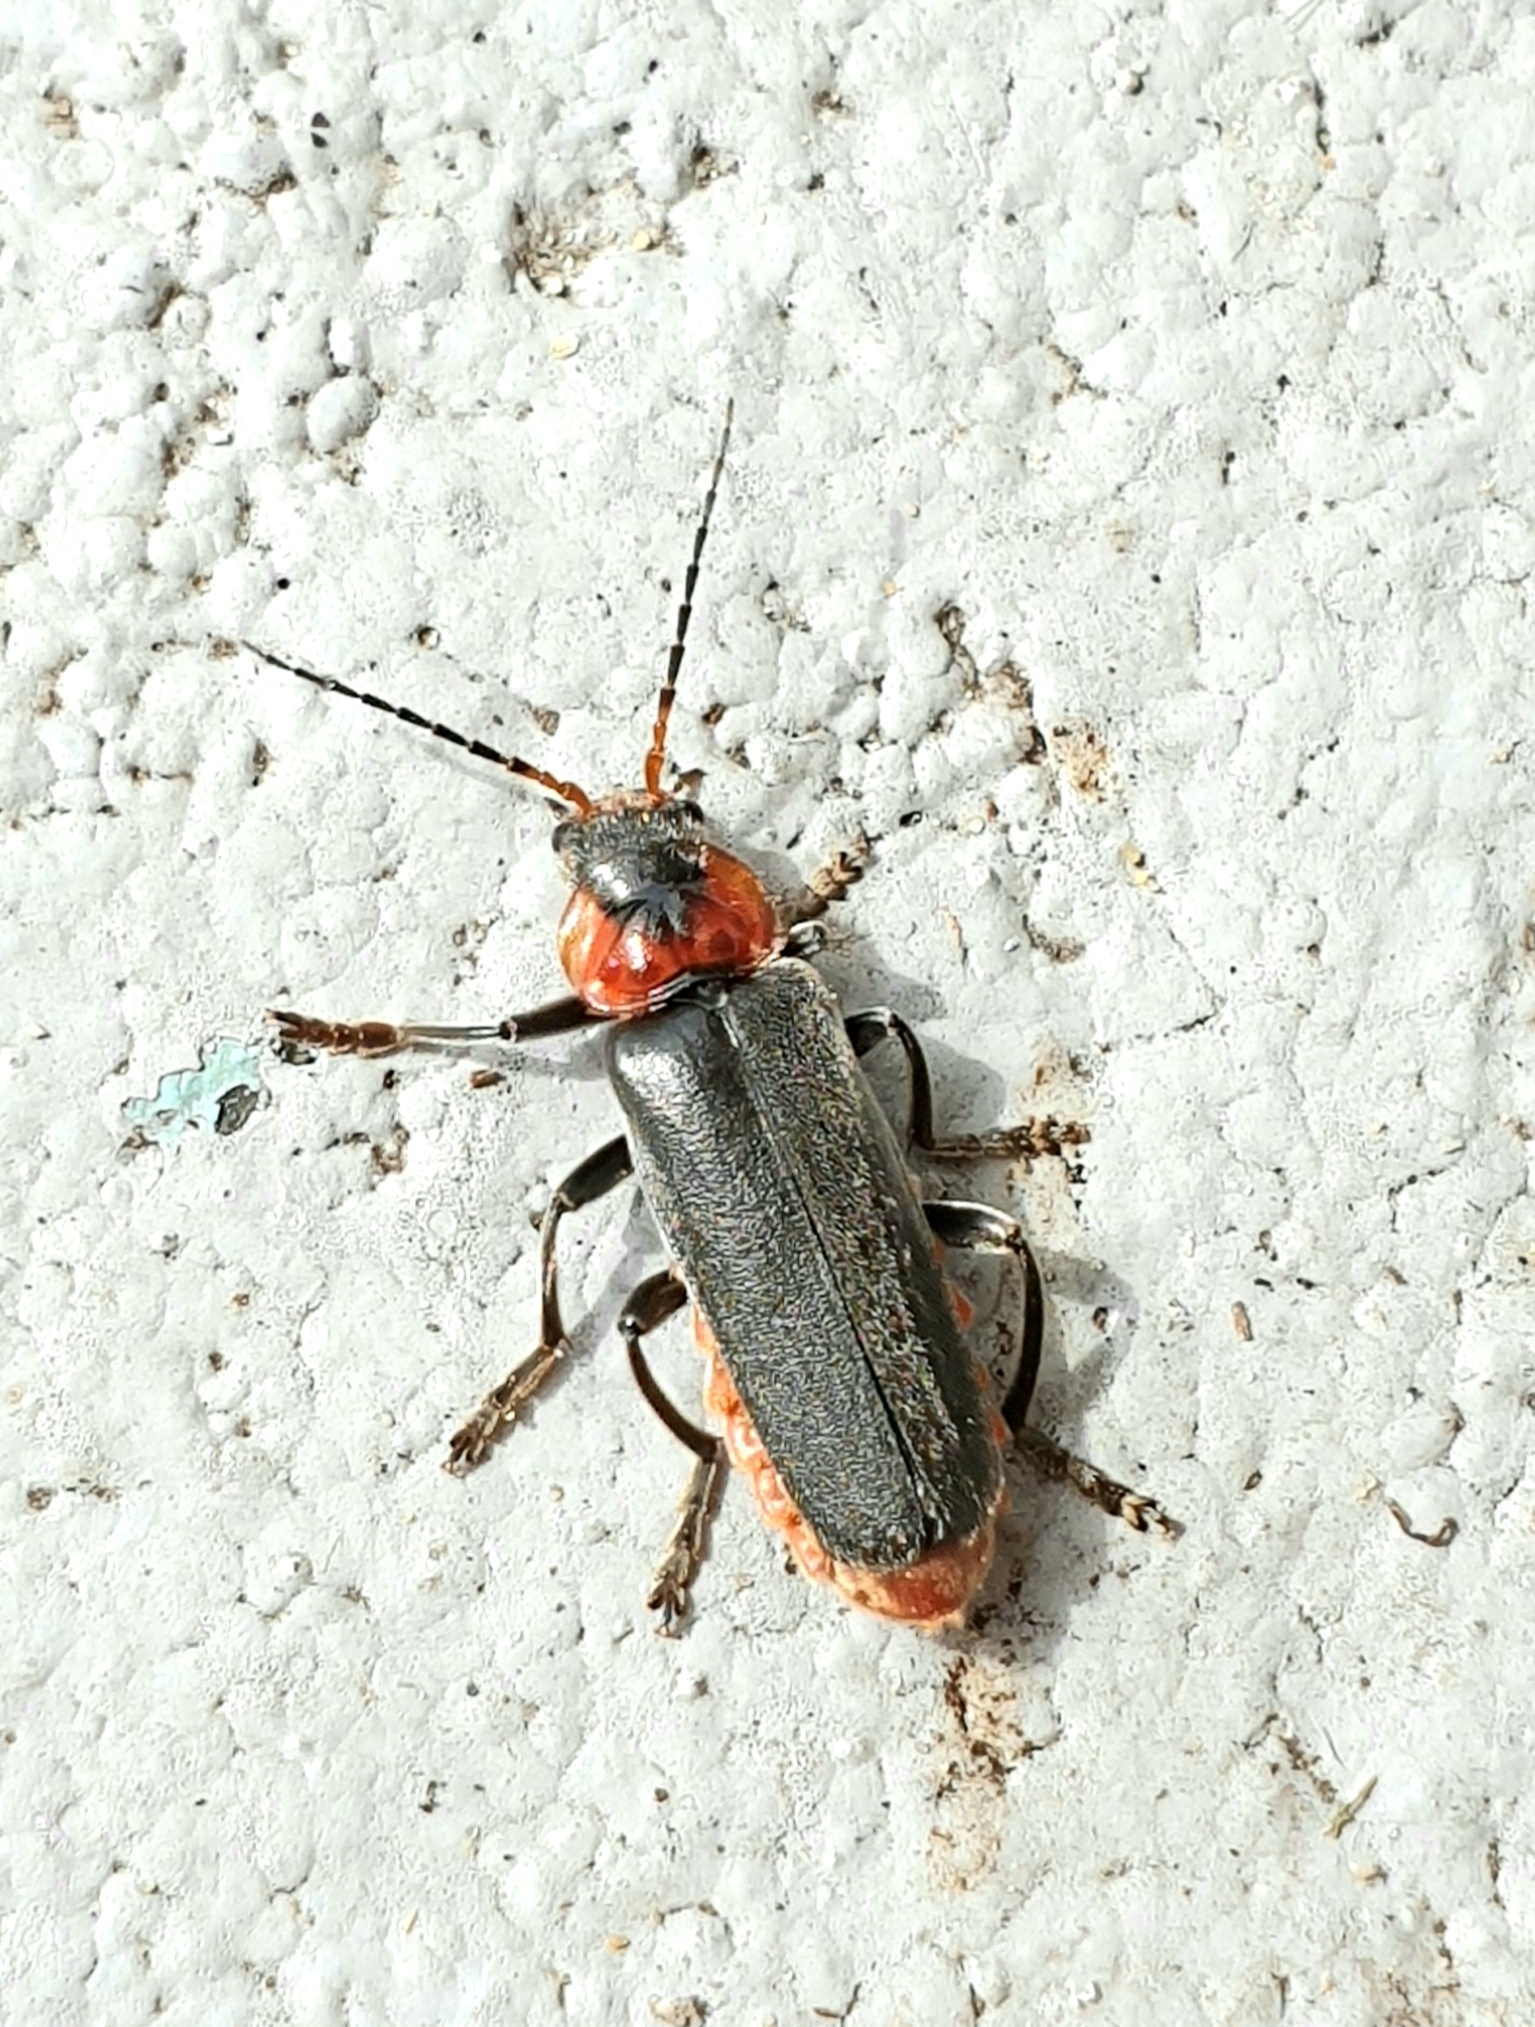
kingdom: Animalia
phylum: Arthropoda
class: Insecta
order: Coleoptera
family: Cantharidae
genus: Cantharis
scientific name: Cantharis fusca
